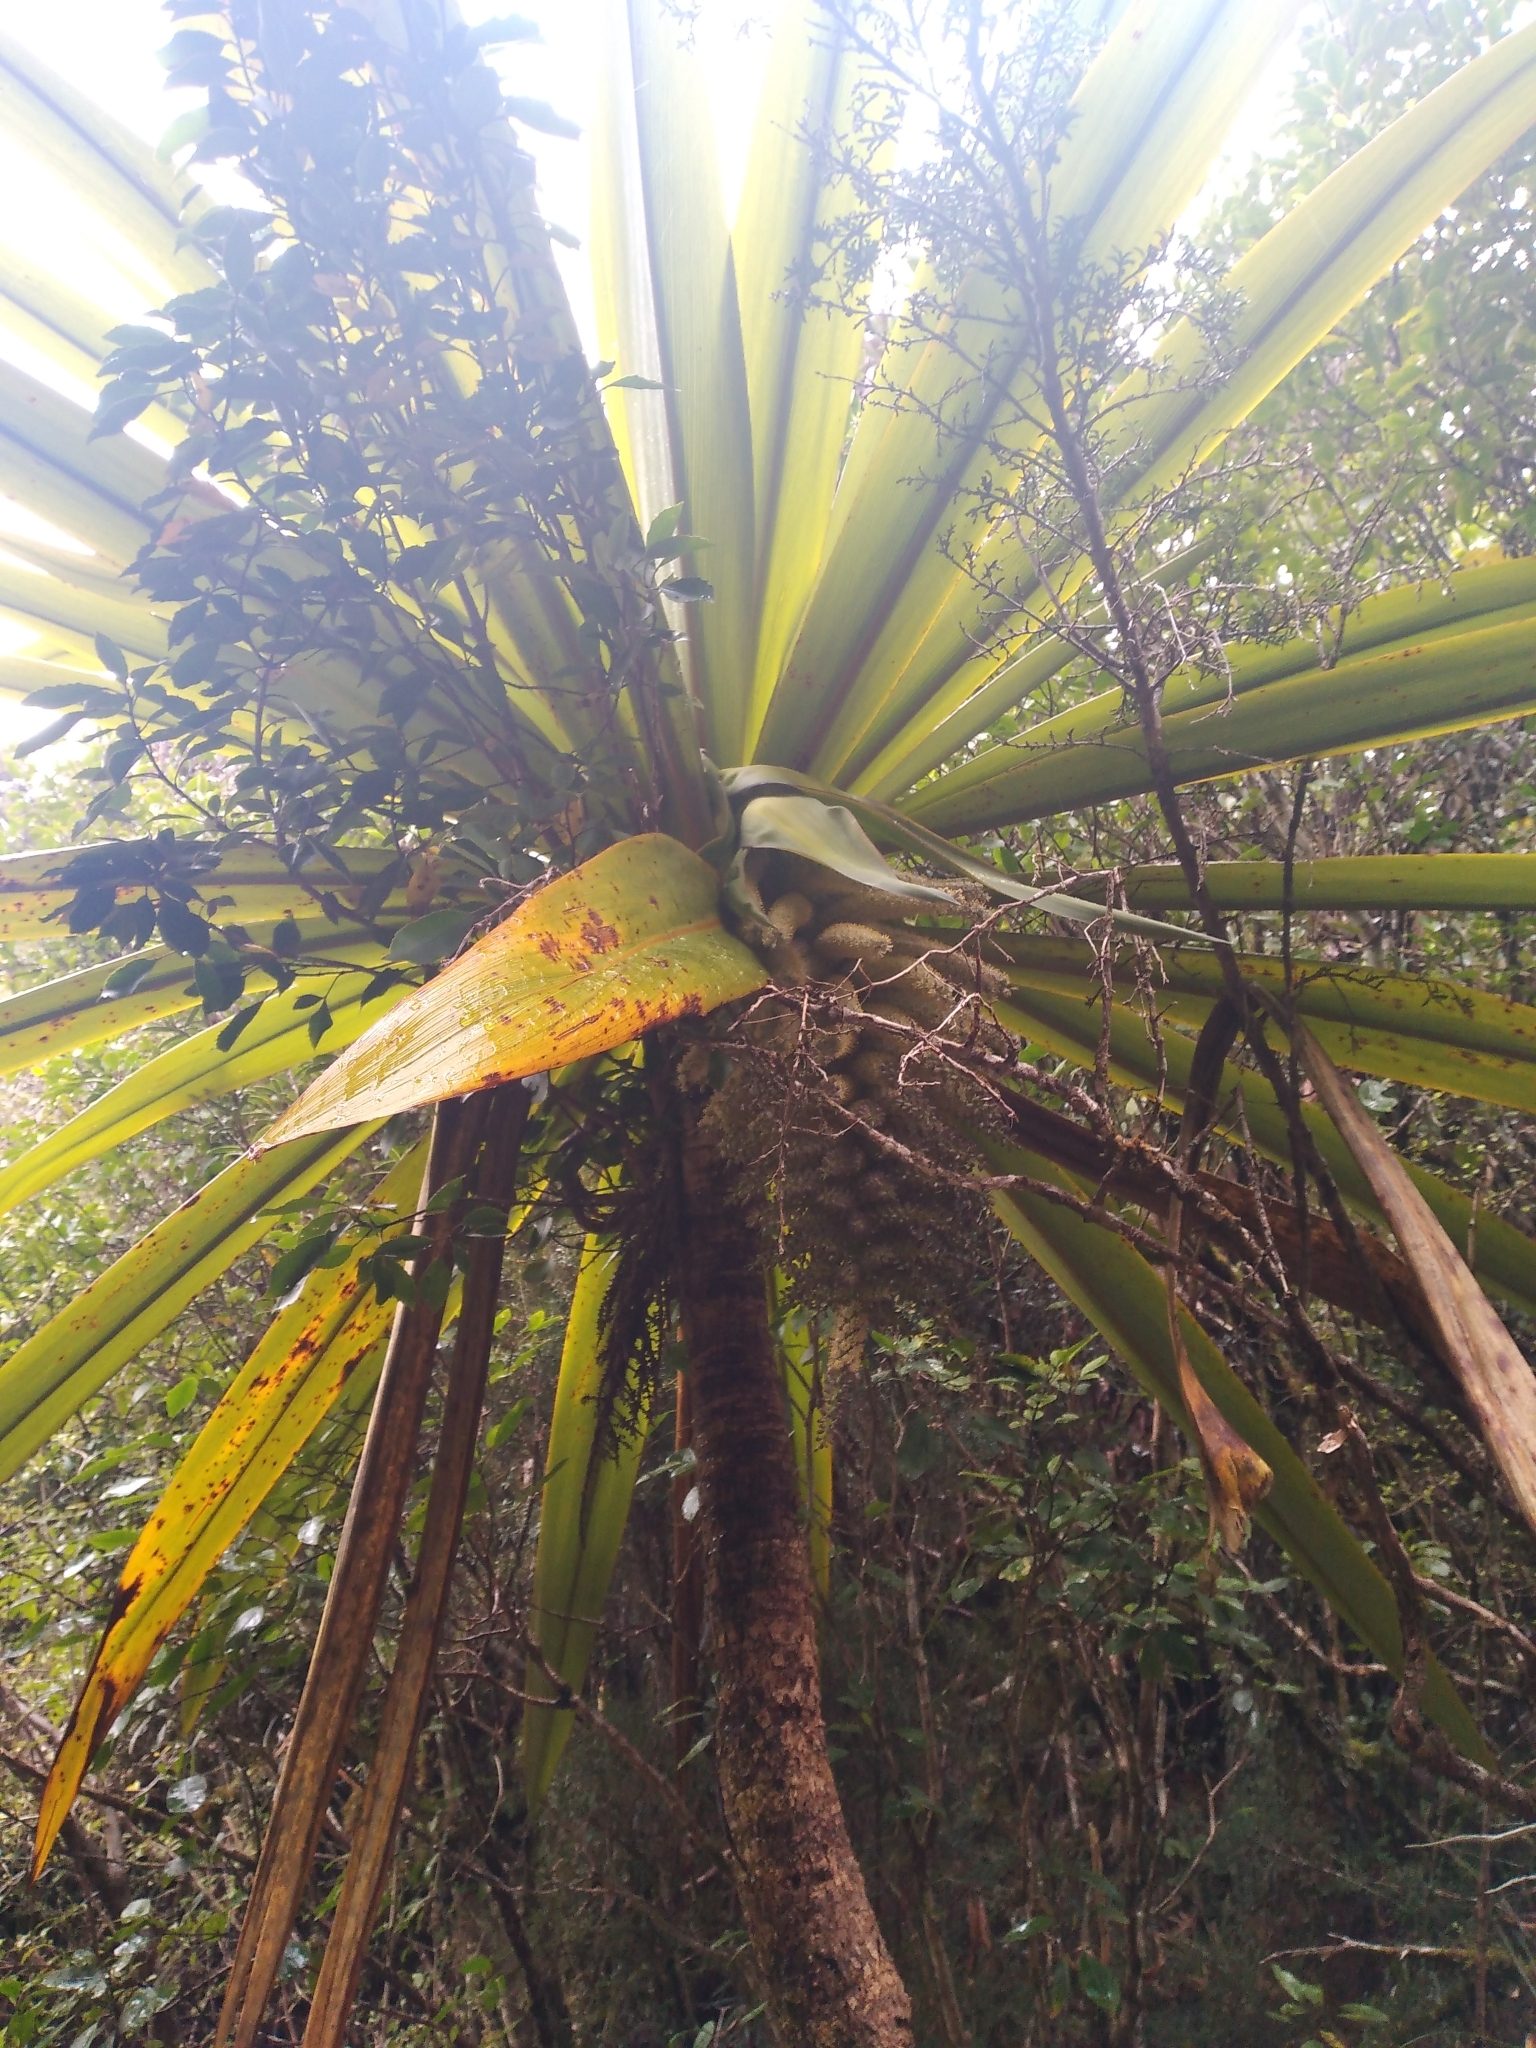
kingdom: Plantae
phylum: Tracheophyta
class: Liliopsida
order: Asparagales
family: Asparagaceae
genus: Cordyline
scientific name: Cordyline indivisa
